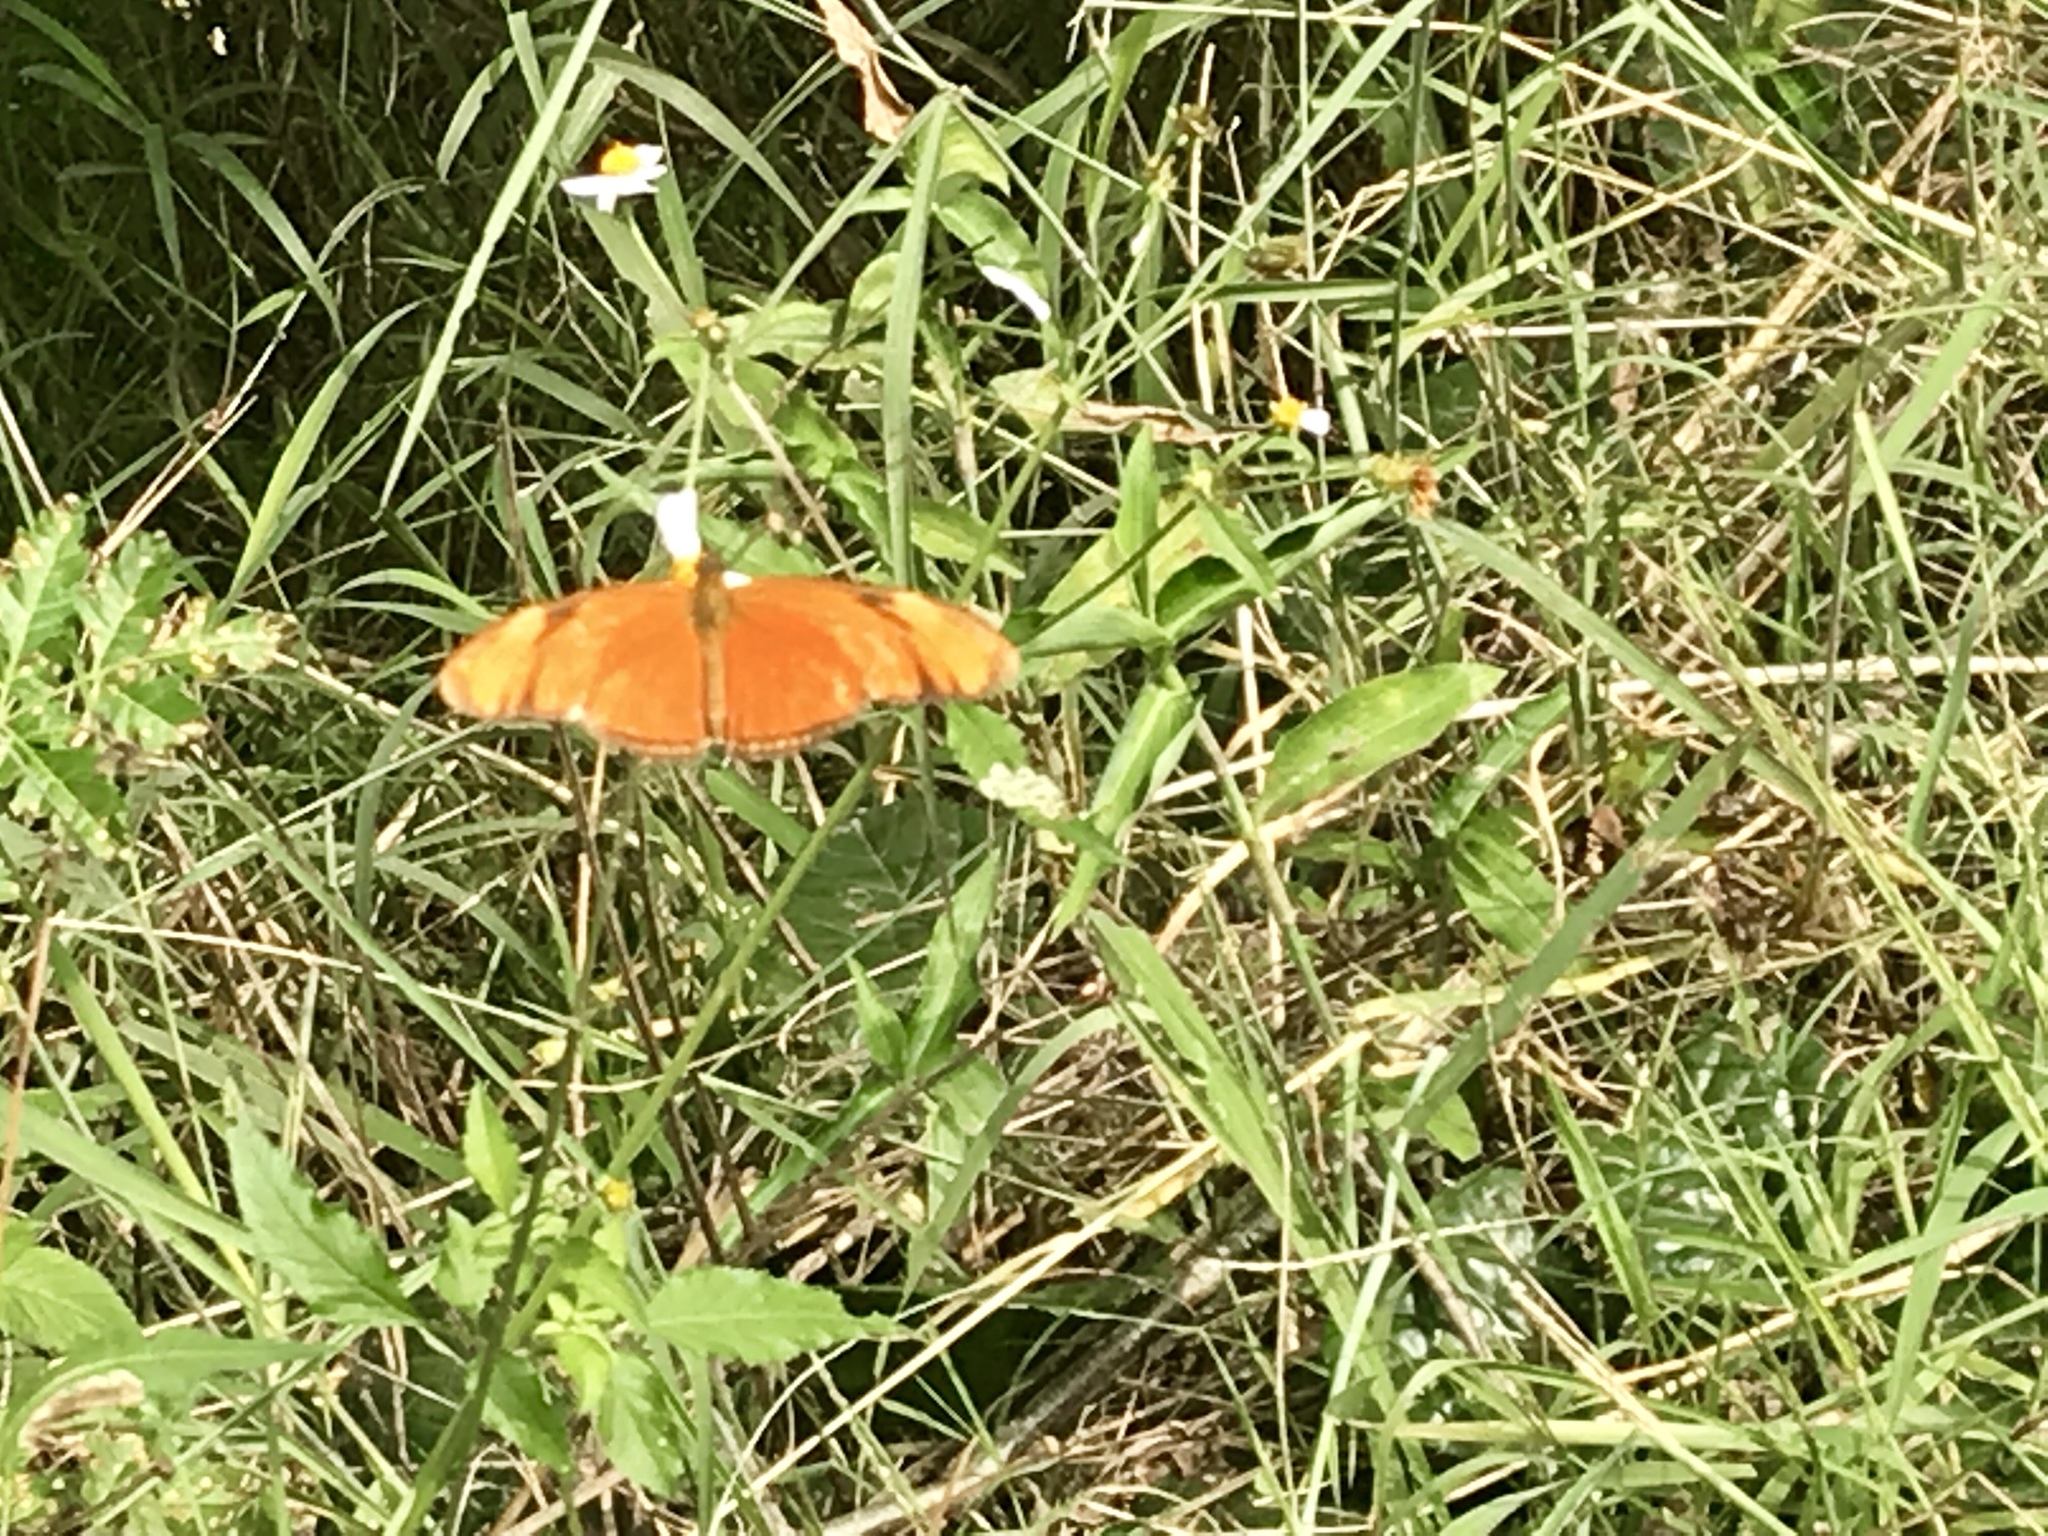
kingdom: Animalia
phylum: Arthropoda
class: Insecta
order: Lepidoptera
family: Nymphalidae
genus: Dryas
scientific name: Dryas iulia
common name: Flambeau
